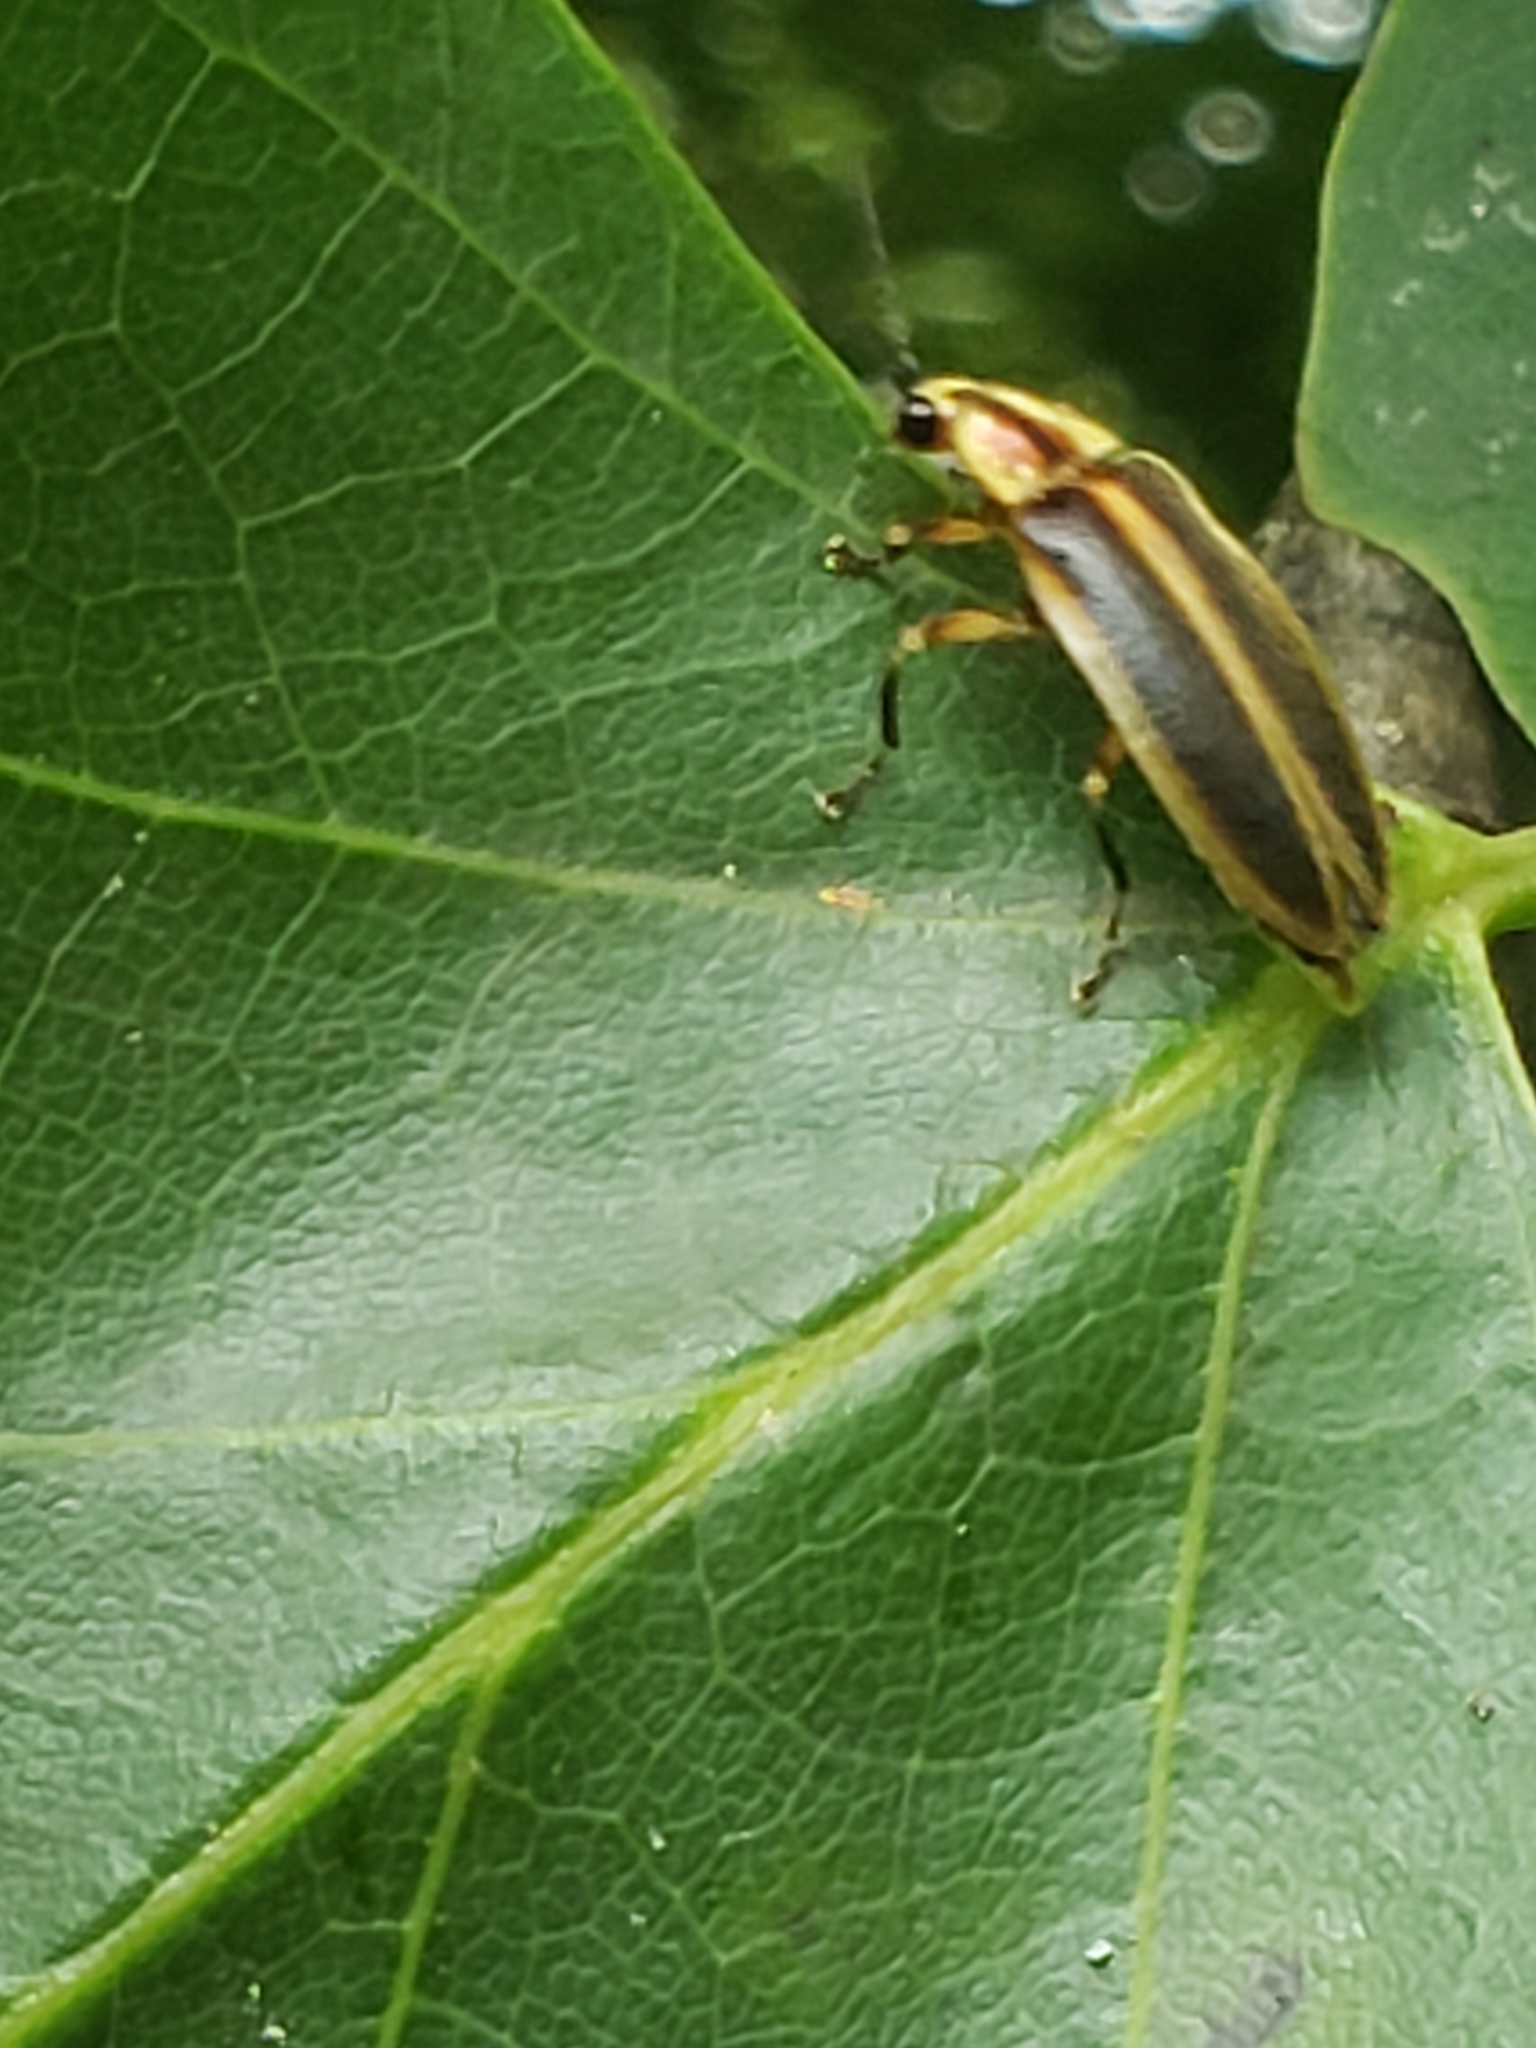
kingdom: Animalia
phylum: Arthropoda
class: Insecta
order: Coleoptera
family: Lampyridae
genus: Photuris
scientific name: Photuris
